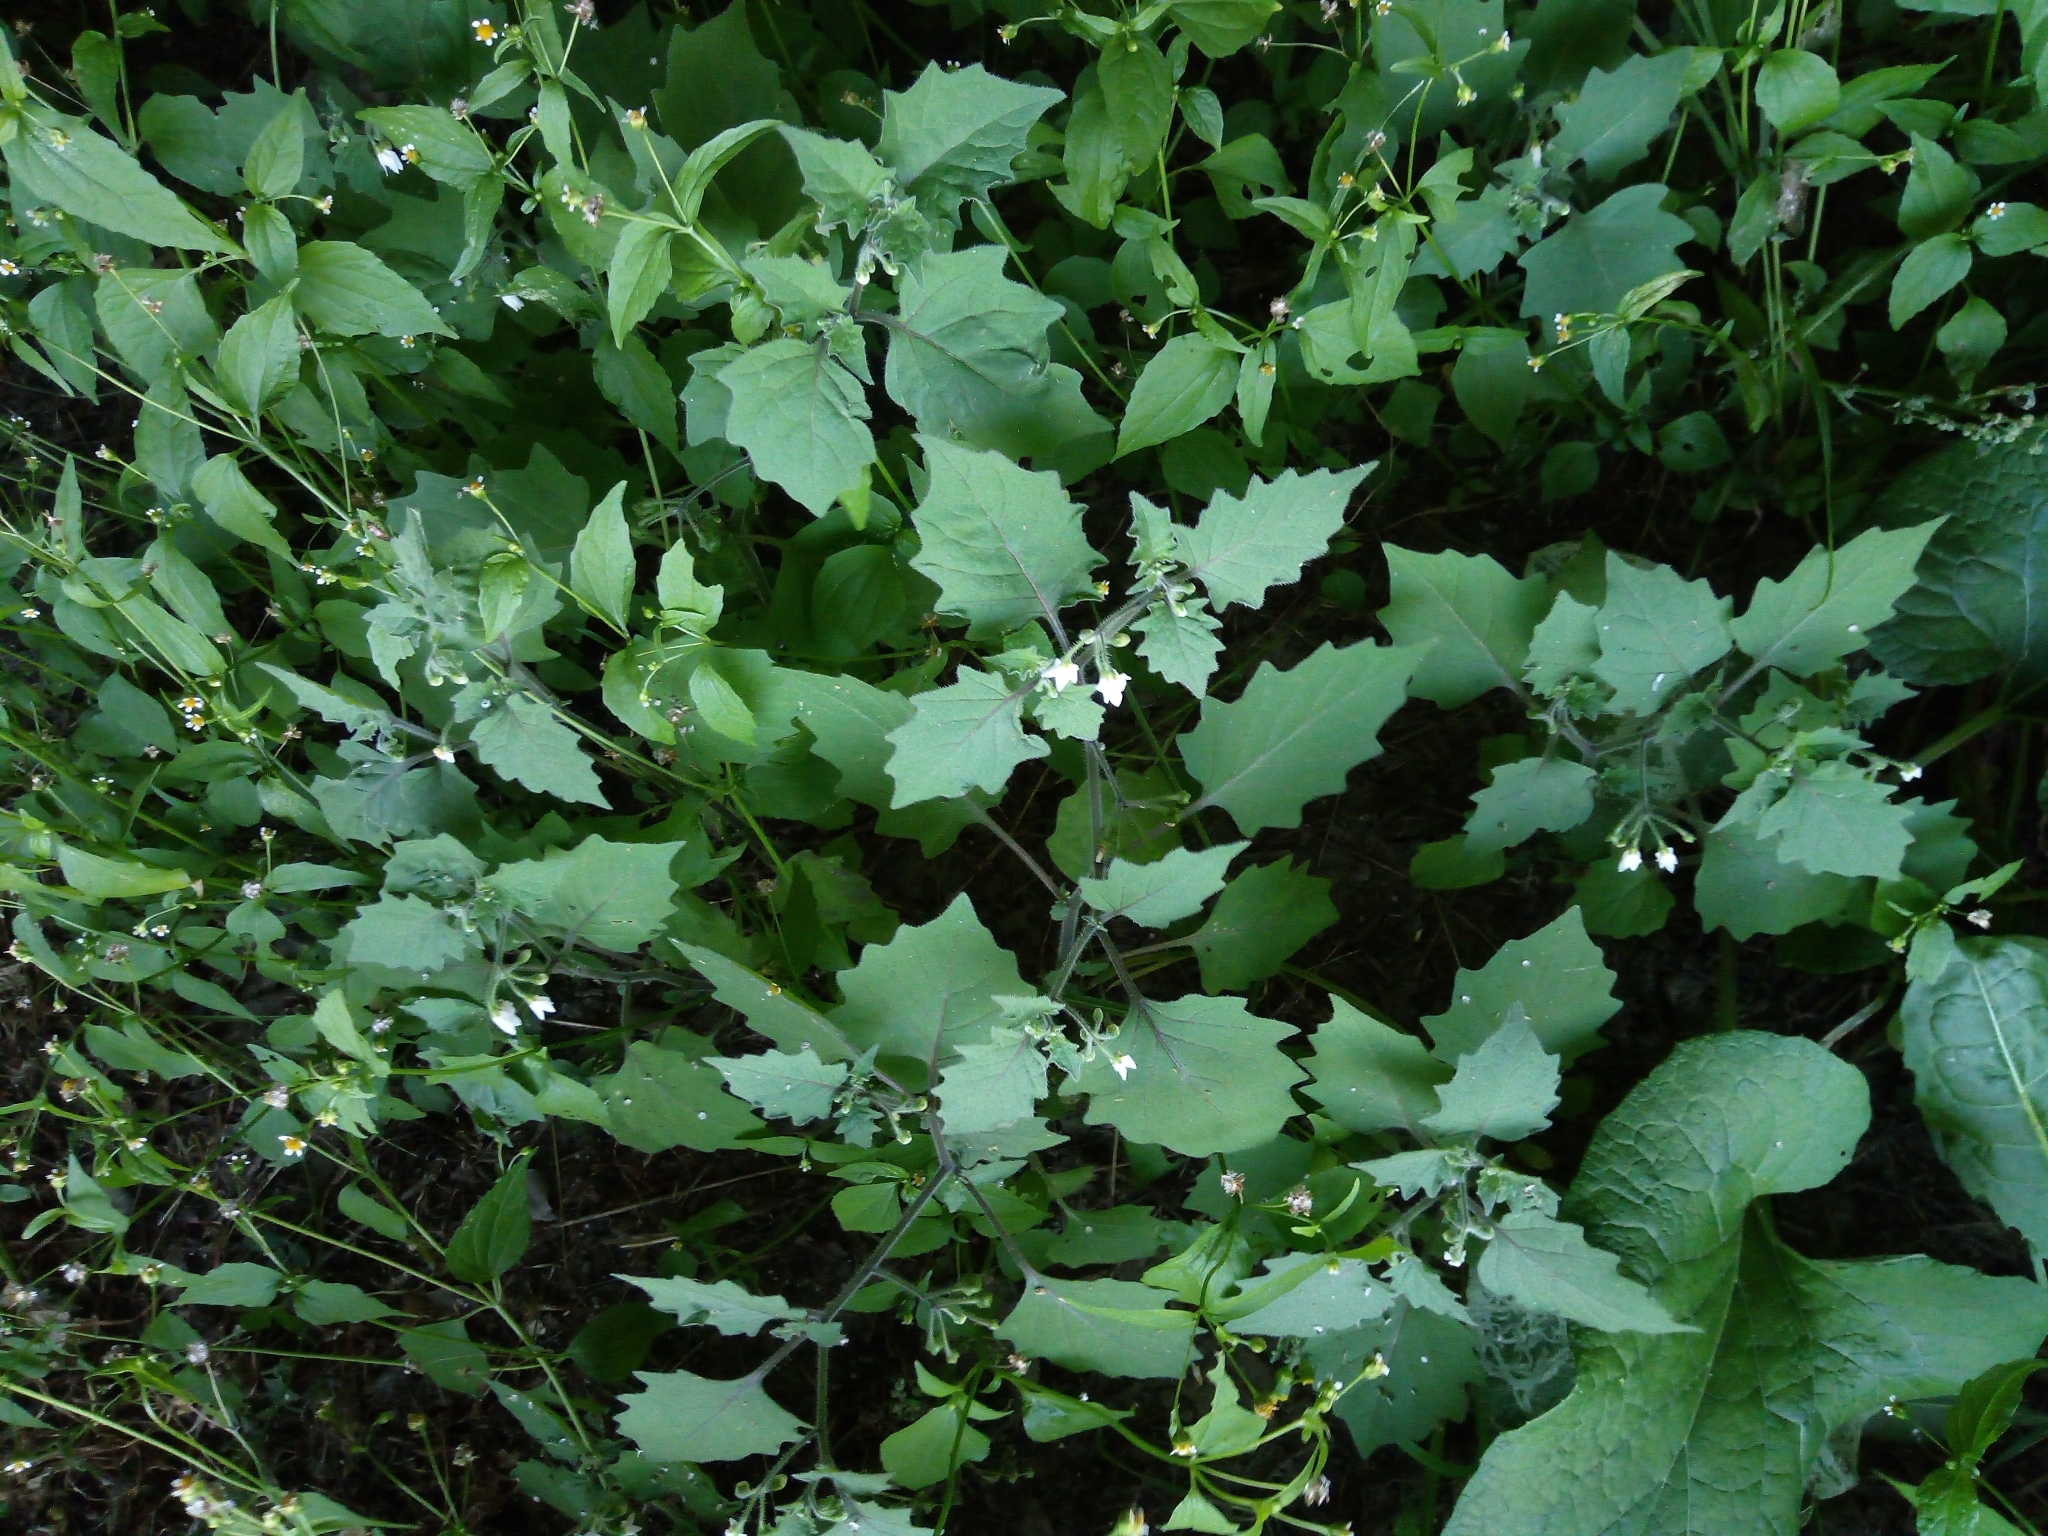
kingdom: Plantae
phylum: Tracheophyta
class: Magnoliopsida
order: Solanales
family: Solanaceae
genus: Solanum
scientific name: Solanum decipiens
